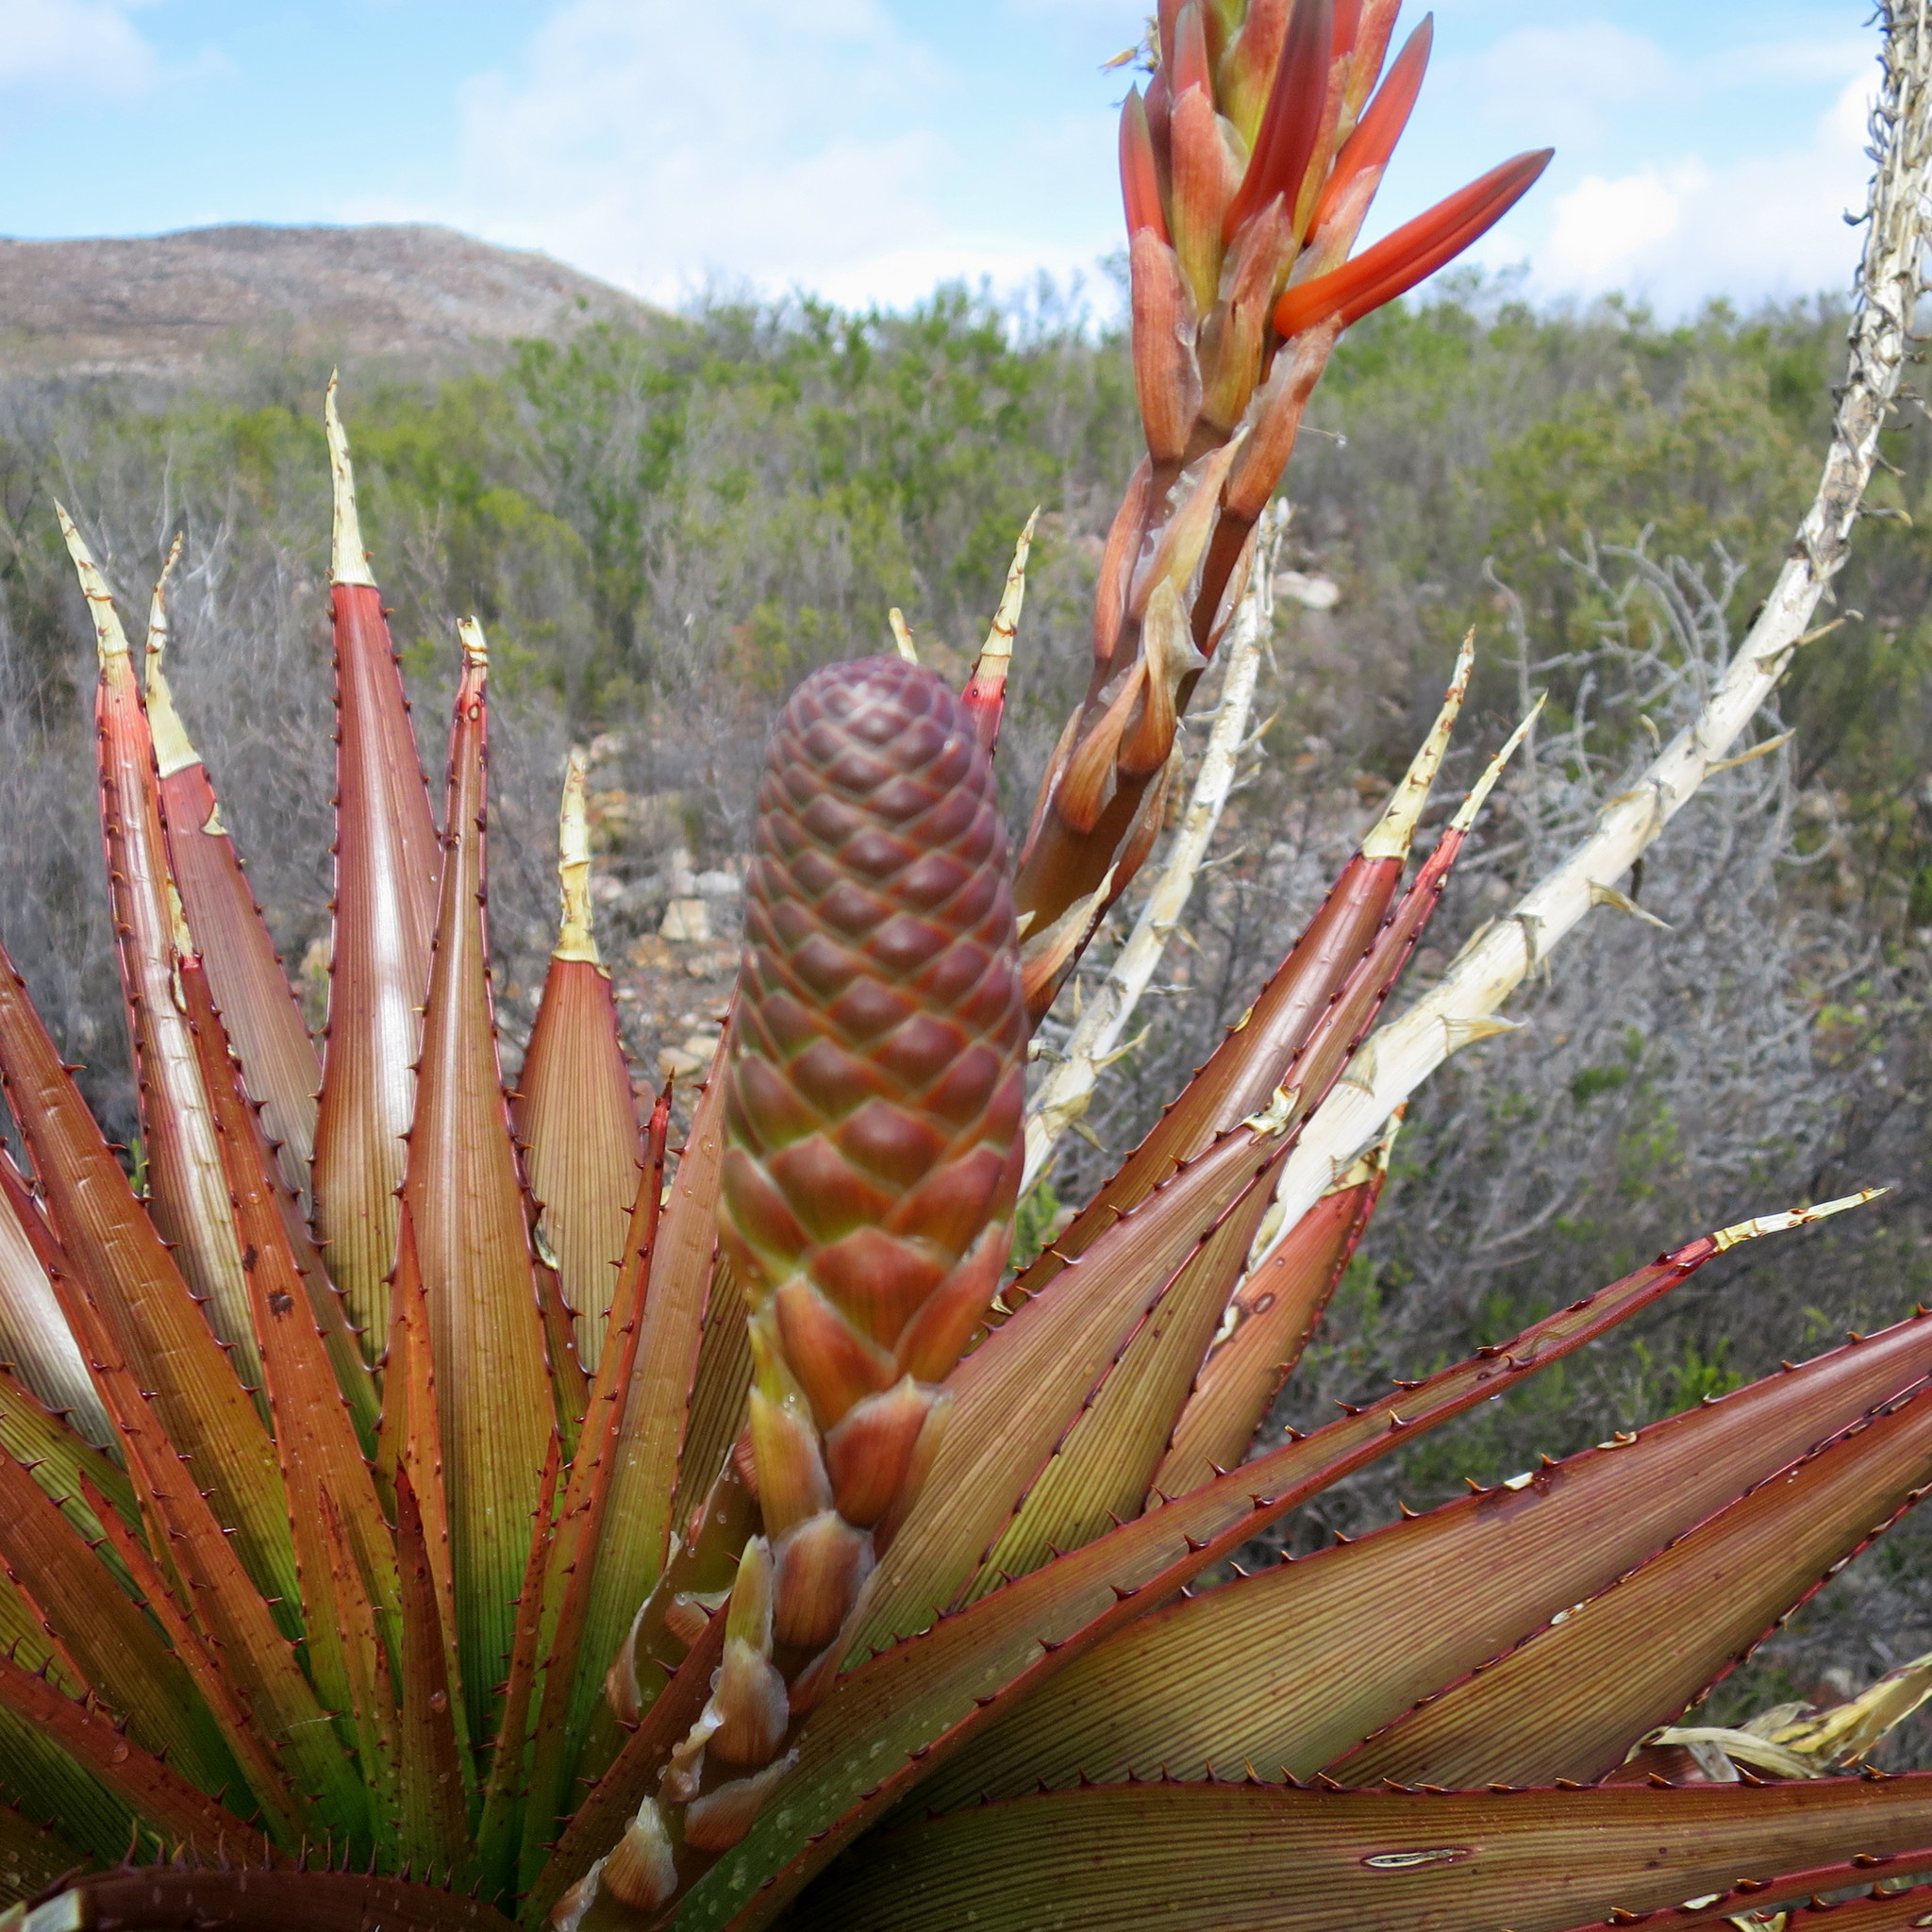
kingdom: Plantae
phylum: Tracheophyta
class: Liliopsida
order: Asparagales
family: Asphodelaceae
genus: Aloe
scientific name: Aloe lineata
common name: Lined red-spined aloe
